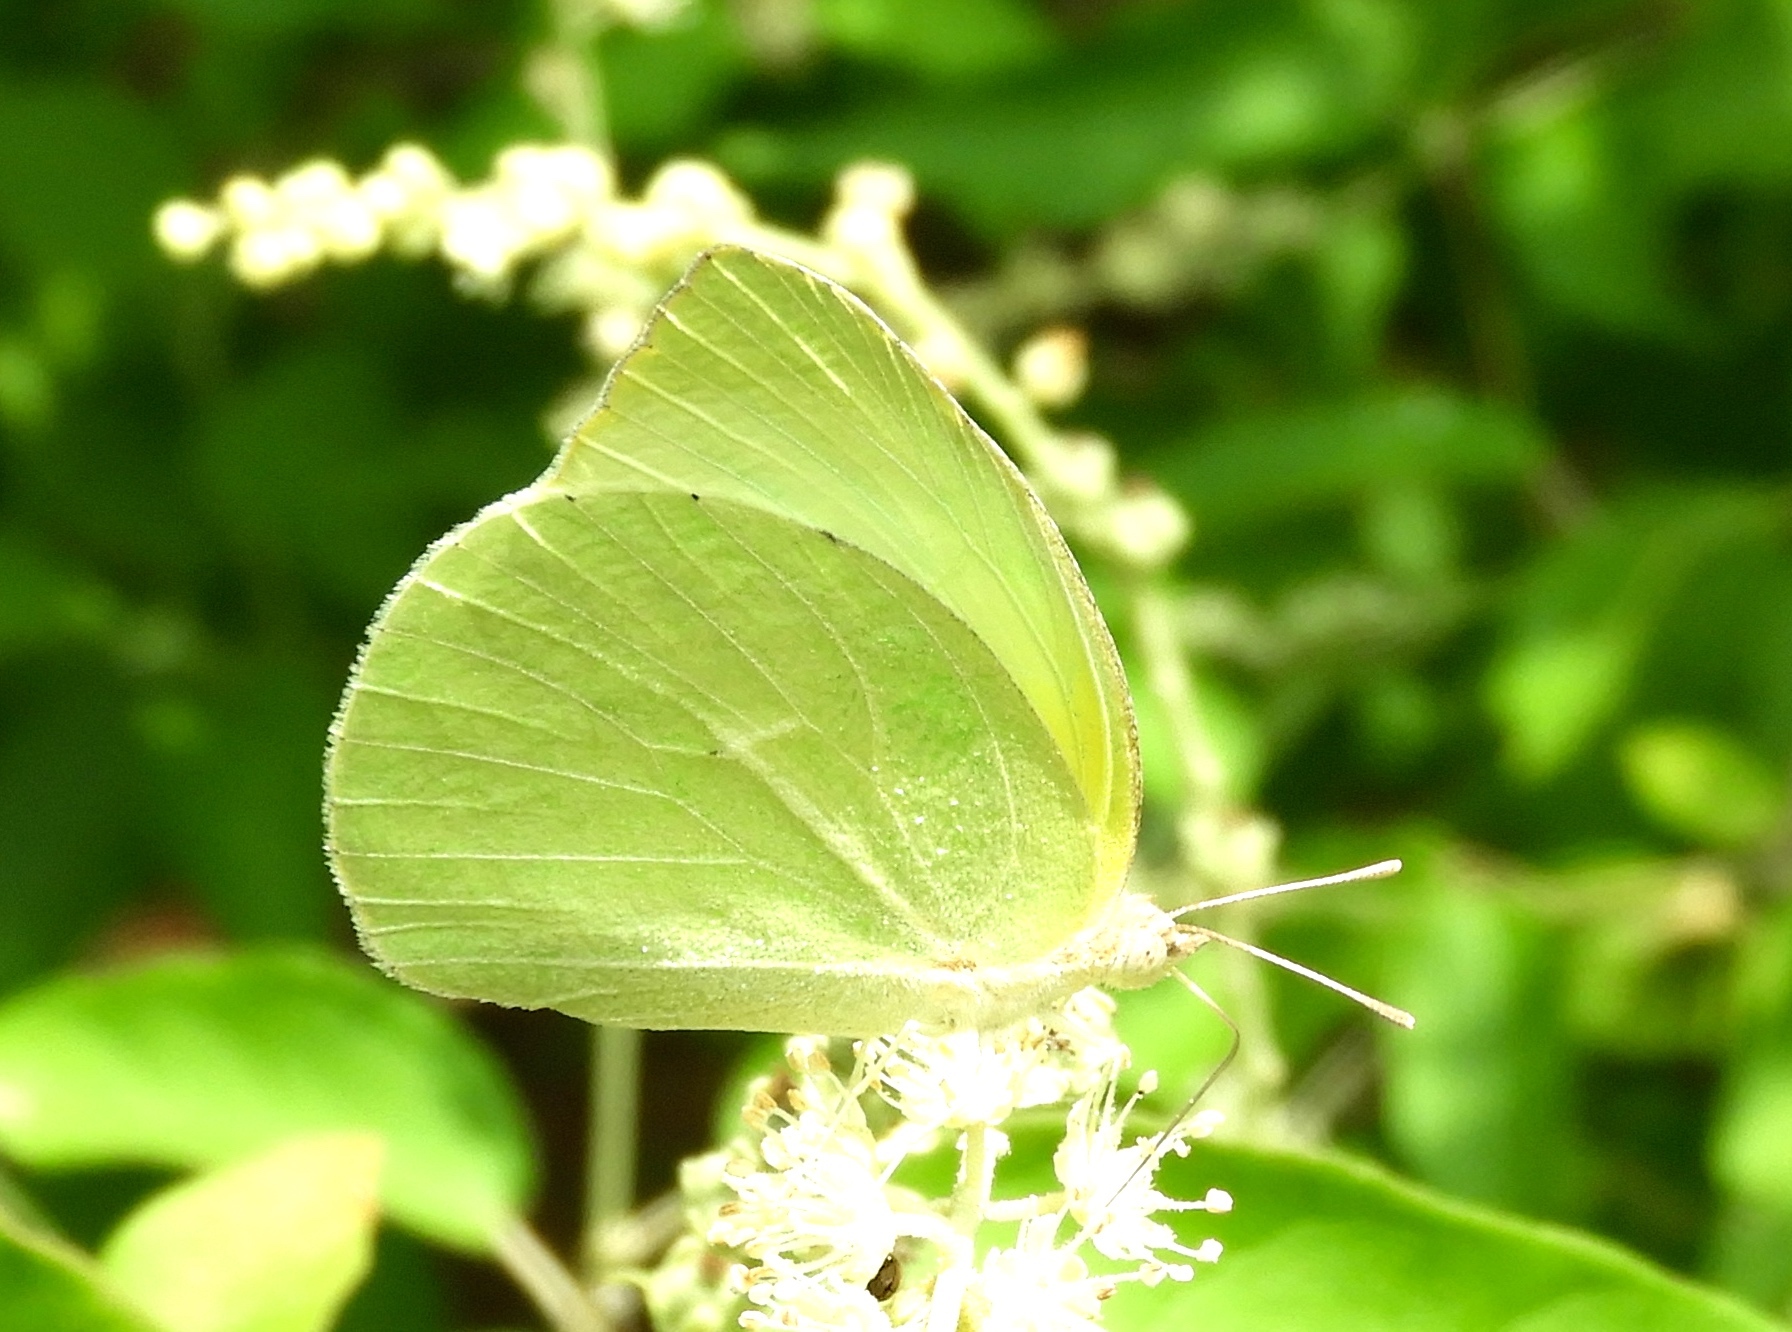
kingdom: Animalia
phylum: Arthropoda
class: Insecta
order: Lepidoptera
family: Pieridae
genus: Kricogonia
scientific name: Kricogonia lyside
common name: Guayacan sulphur,
